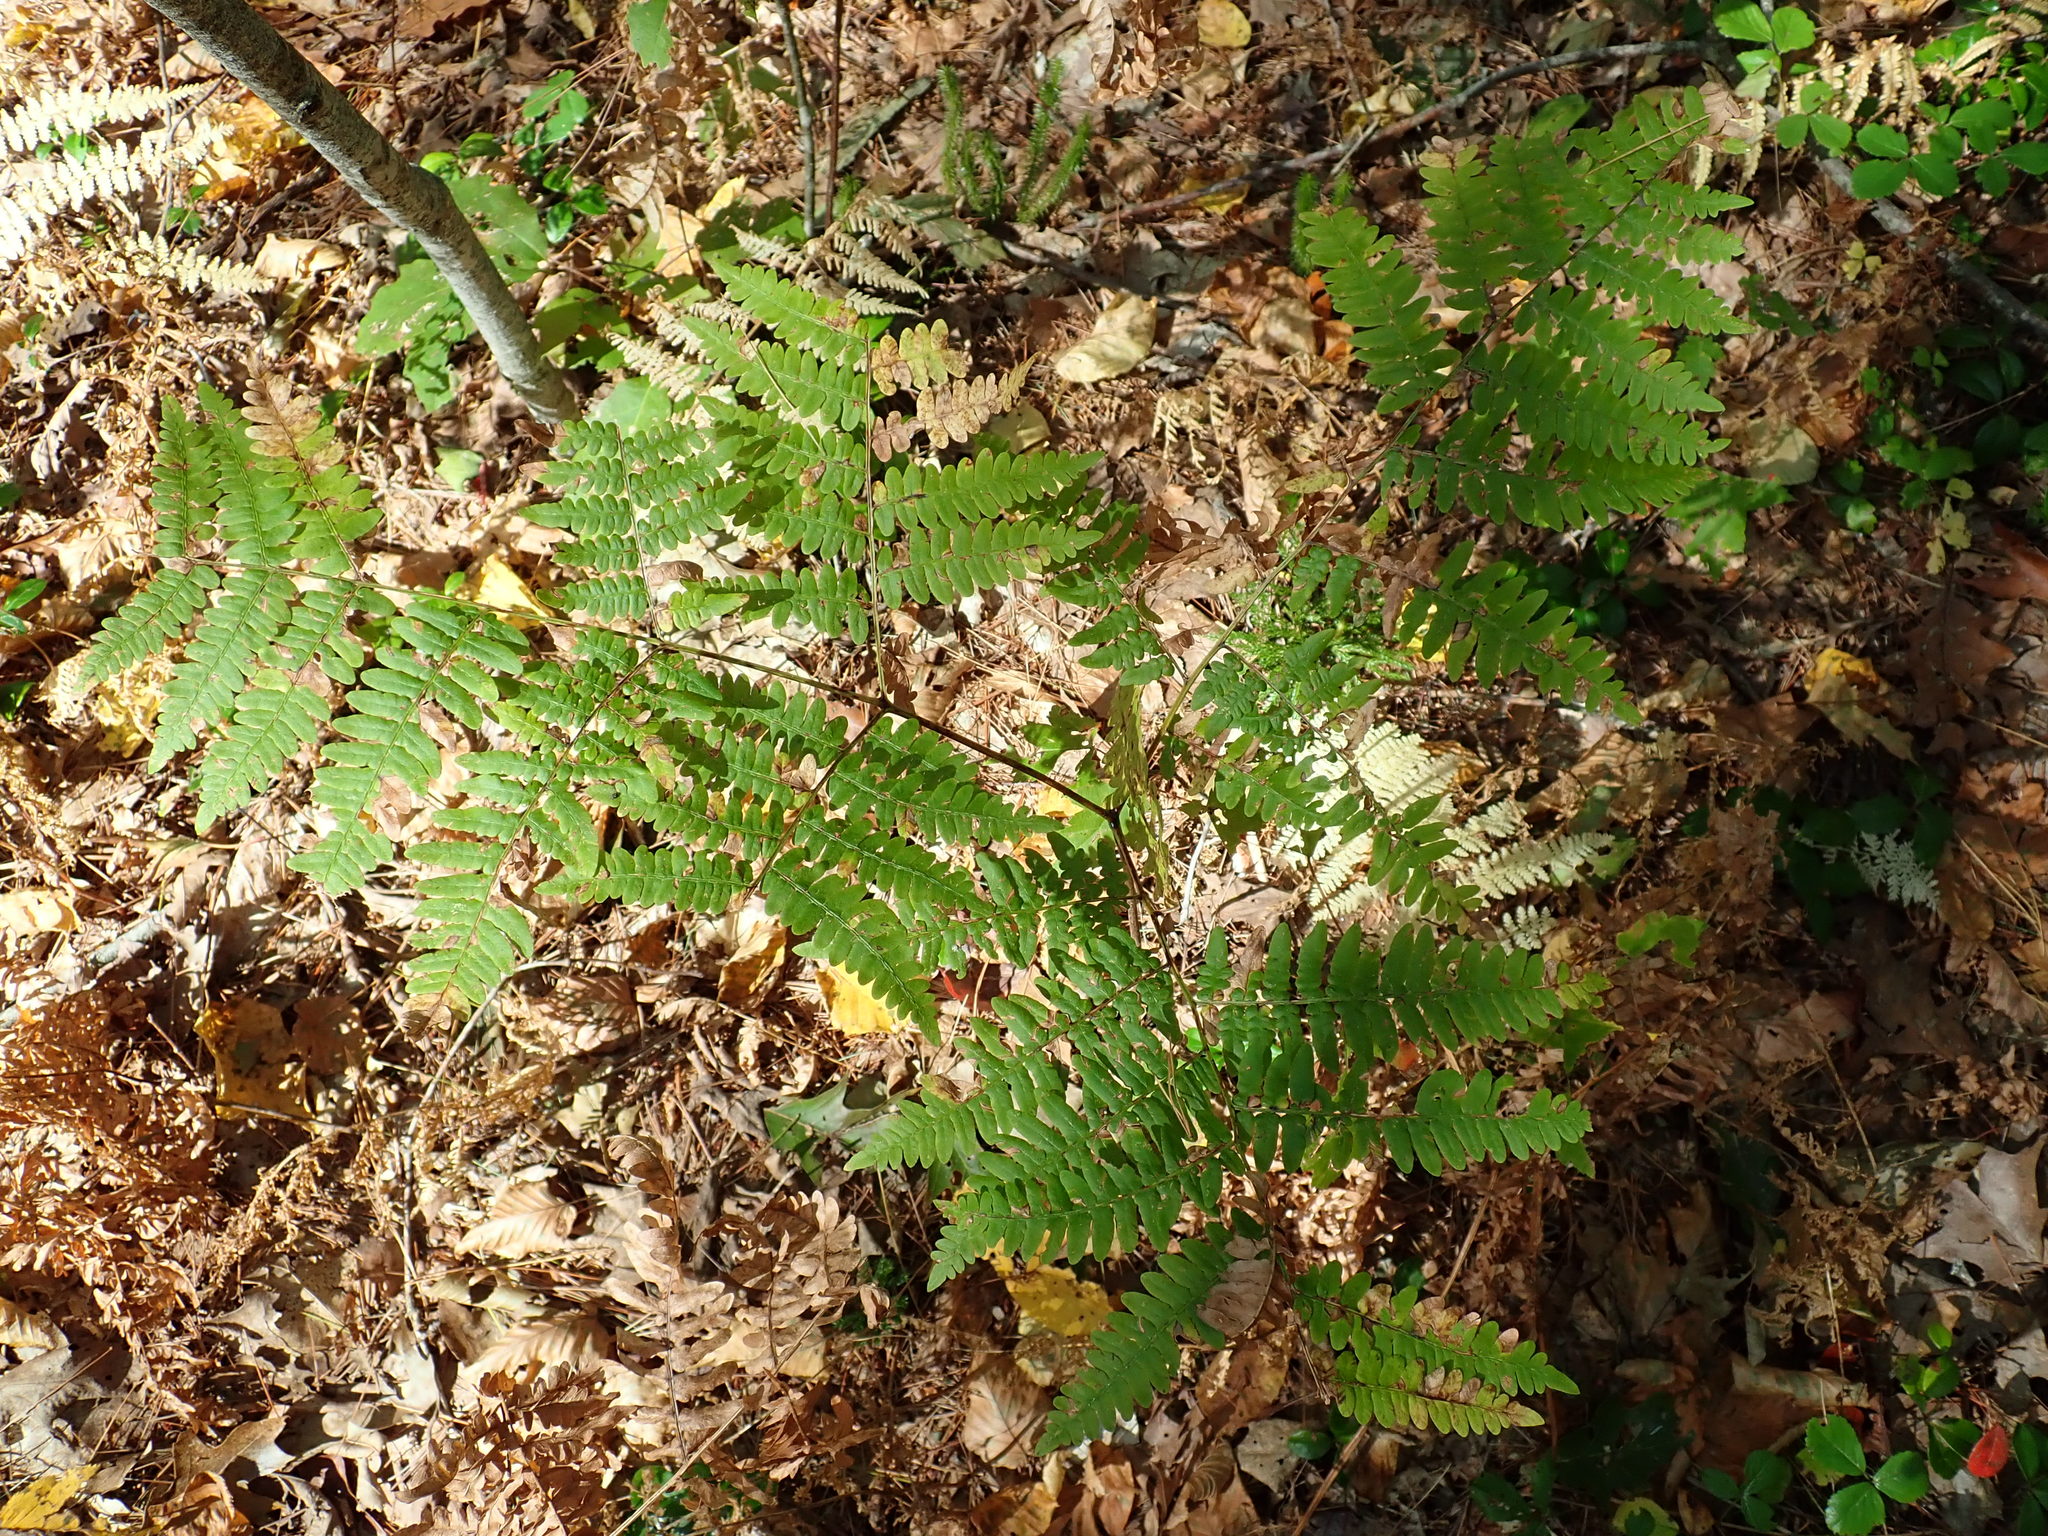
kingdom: Plantae
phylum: Tracheophyta
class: Polypodiopsida
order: Polypodiales
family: Dennstaedtiaceae
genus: Pteridium
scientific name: Pteridium aquilinum
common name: Bracken
